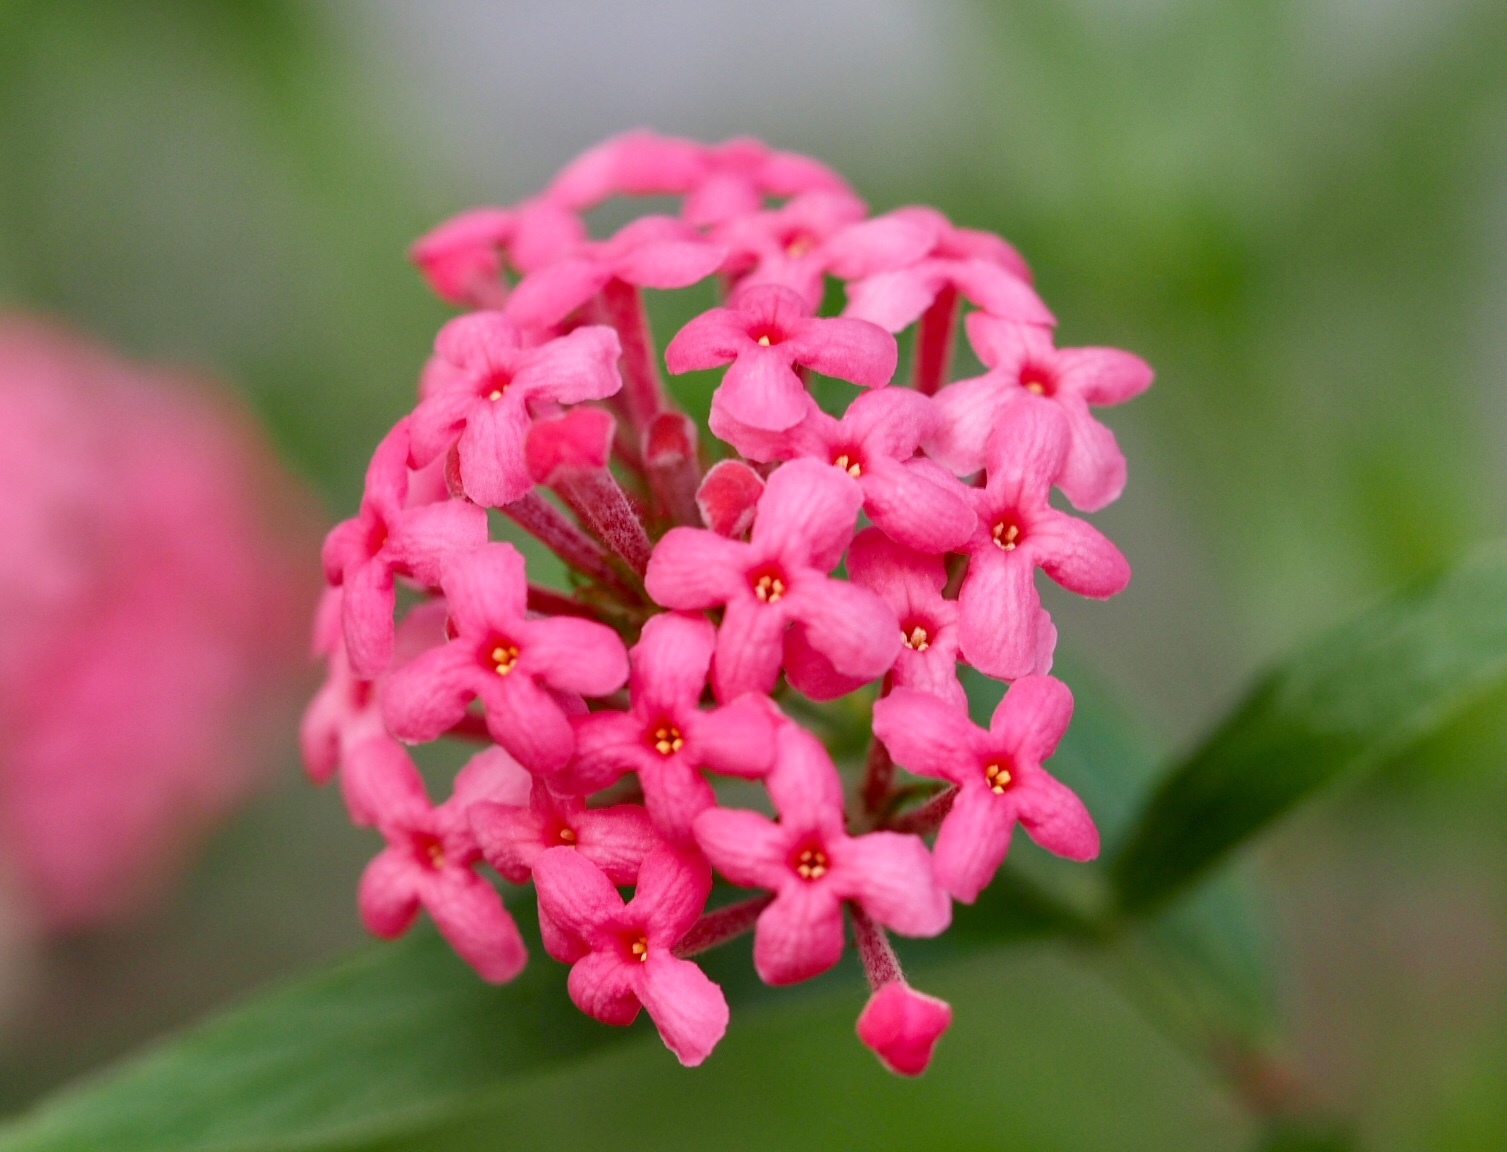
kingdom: Plantae
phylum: Tracheophyta
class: Magnoliopsida
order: Gentianales
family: Rubiaceae
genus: Arachnothryx
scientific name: Arachnothryx leucophylla
